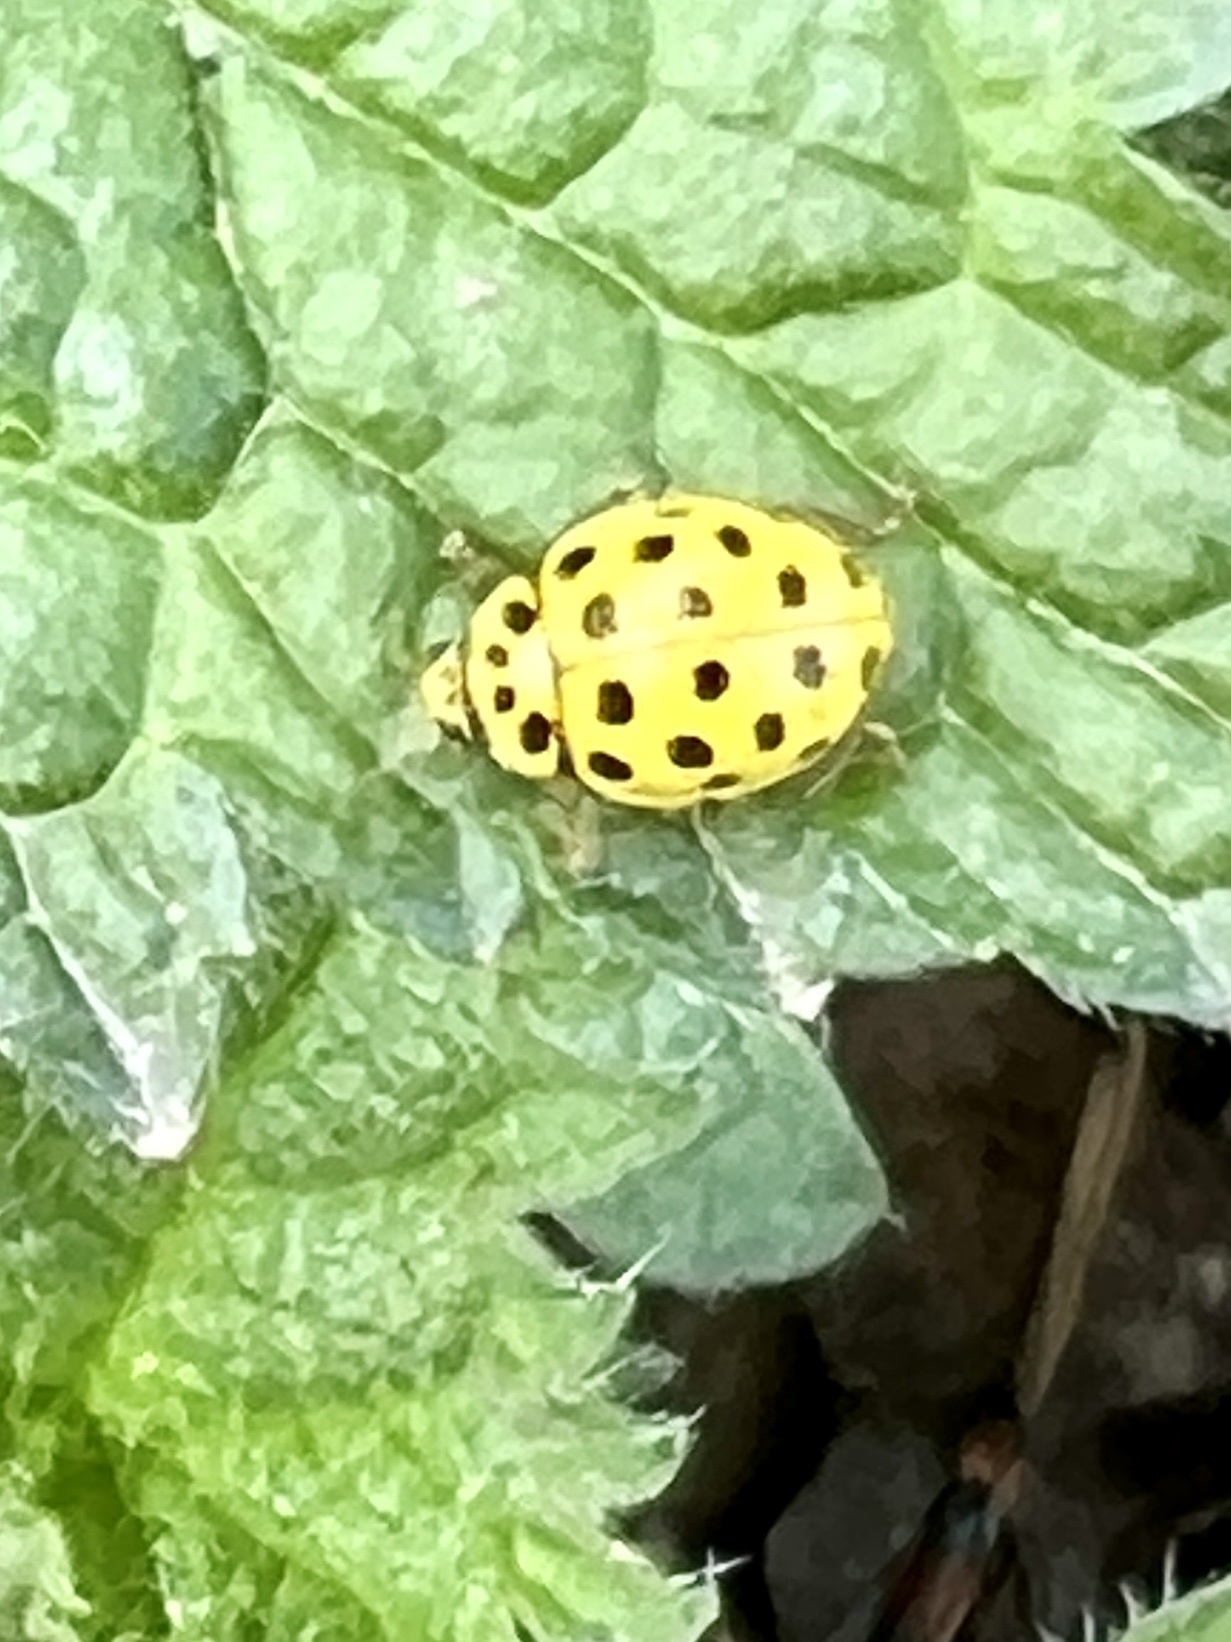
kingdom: Animalia
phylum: Arthropoda
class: Insecta
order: Coleoptera
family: Coccinellidae
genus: Psyllobora
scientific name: Psyllobora vigintiduopunctata
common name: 22-spot ladybird
